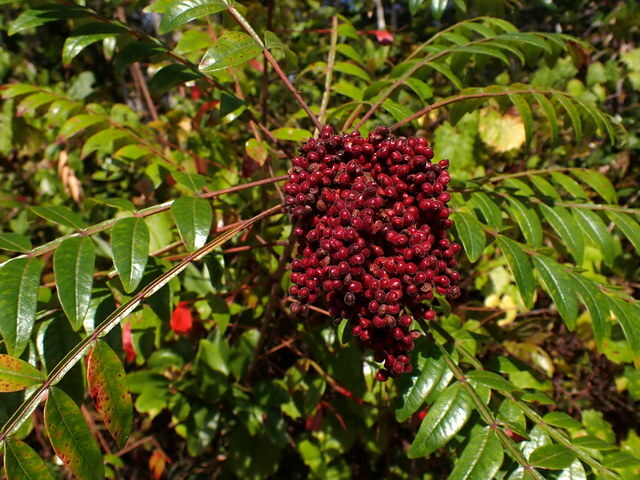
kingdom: Plantae
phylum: Tracheophyta
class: Magnoliopsida
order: Sapindales
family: Anacardiaceae
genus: Rhus
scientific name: Rhus copallina
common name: Shining sumac
